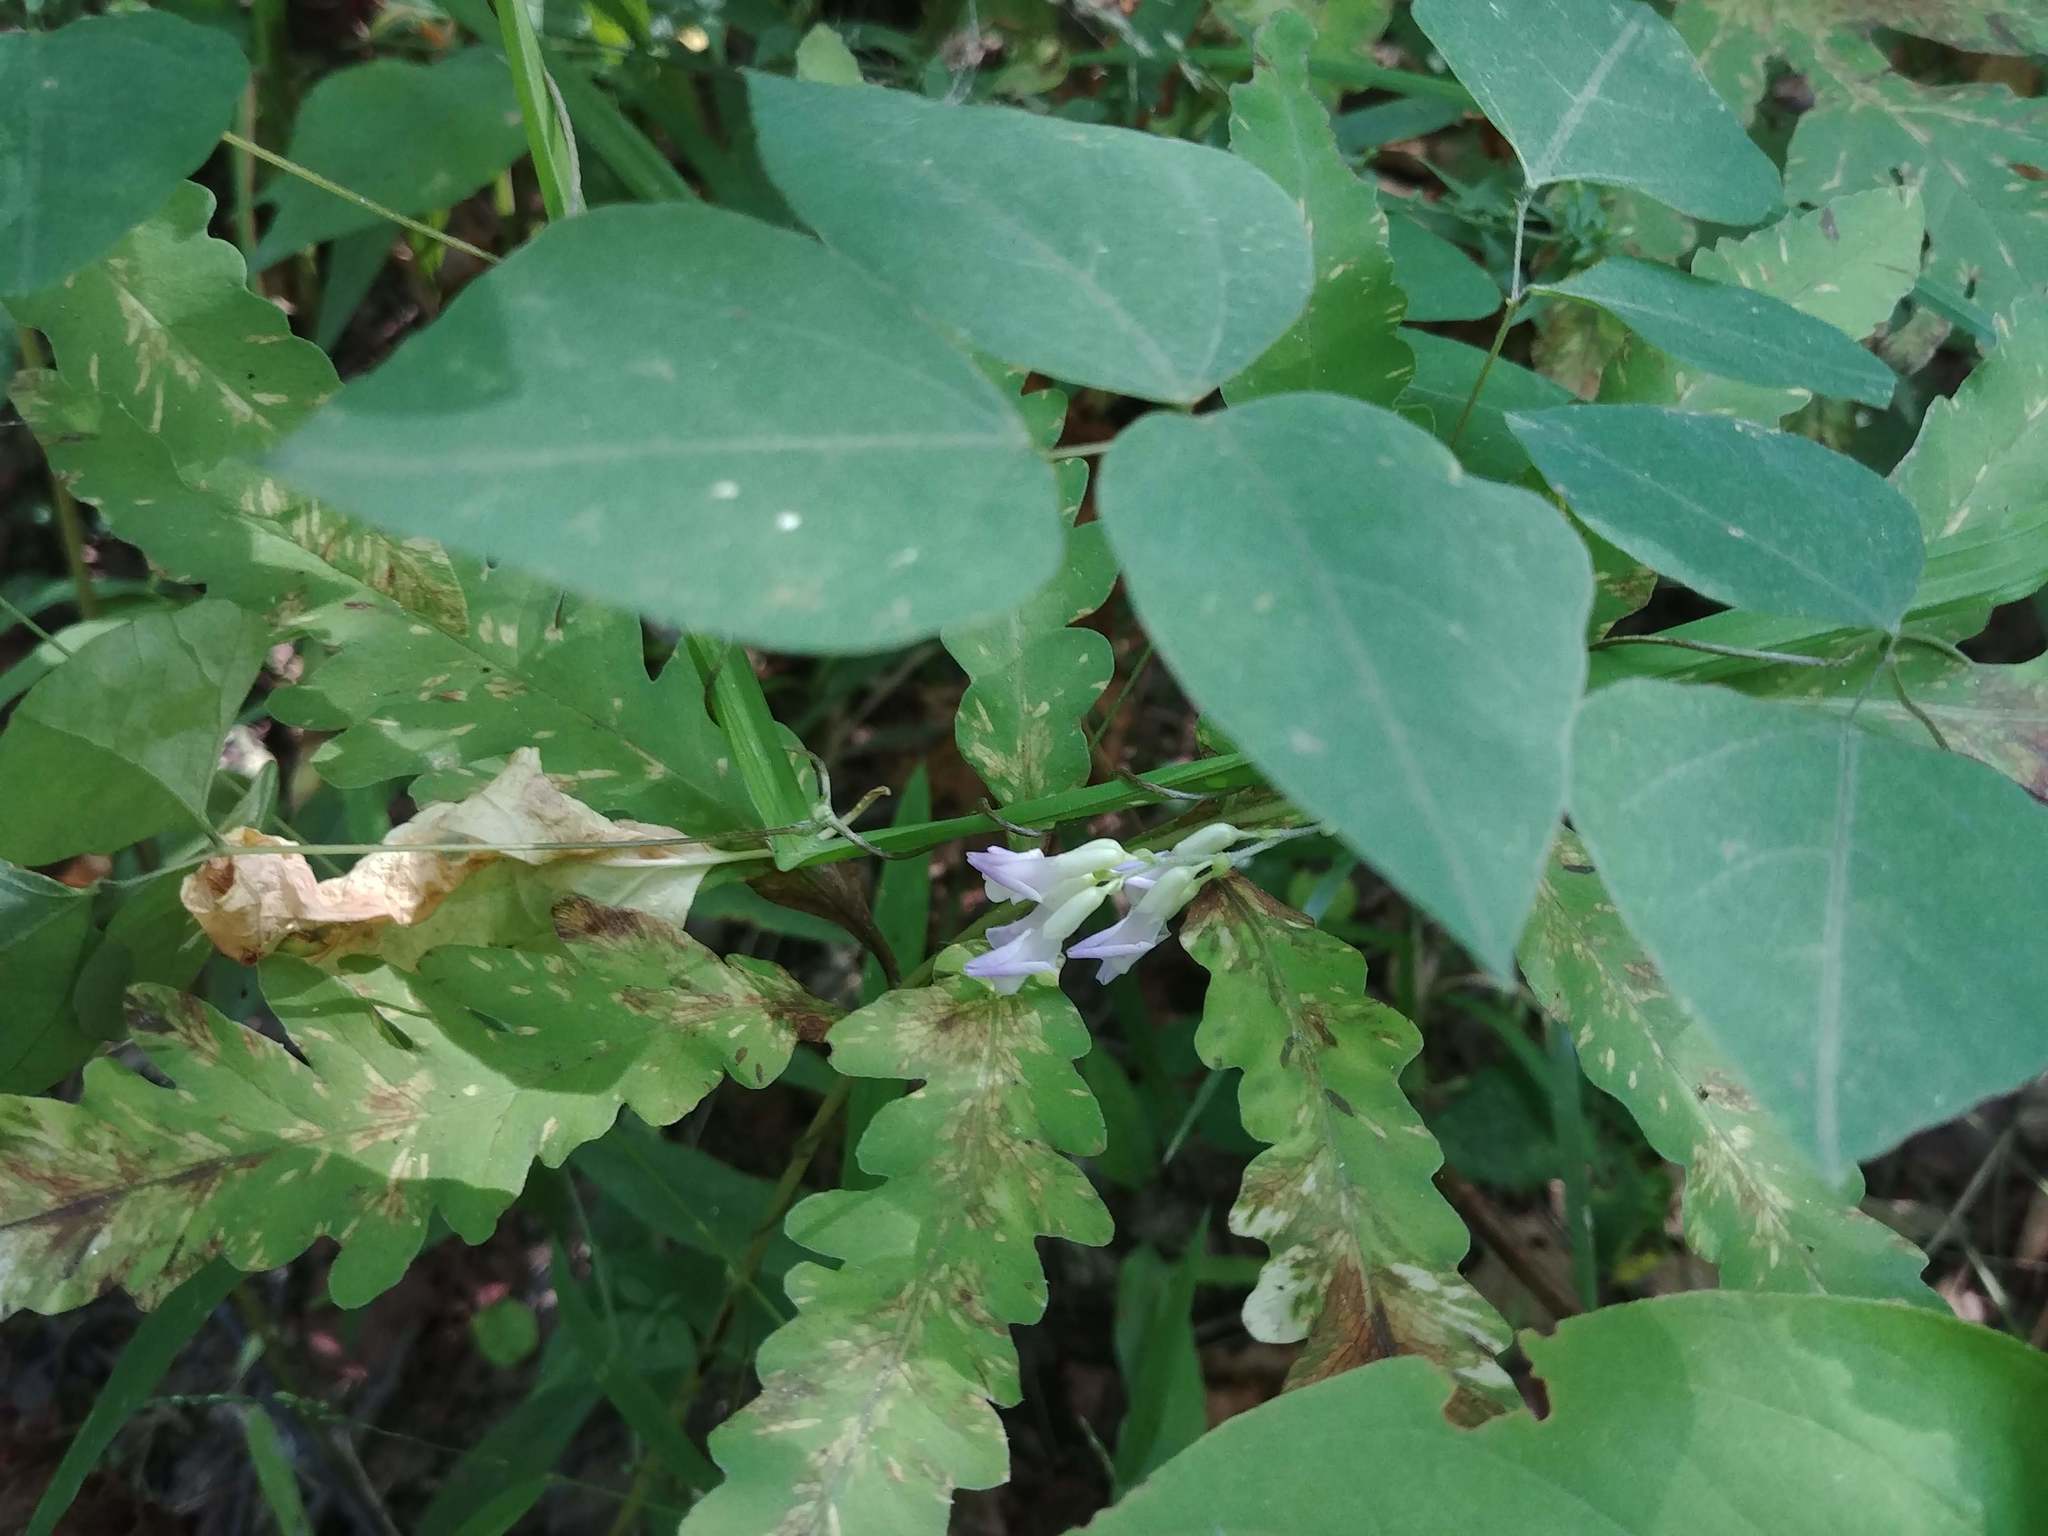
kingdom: Plantae
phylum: Tracheophyta
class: Magnoliopsida
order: Fabales
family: Fabaceae
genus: Amphicarpaea
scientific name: Amphicarpaea bracteata
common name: American hog peanut
